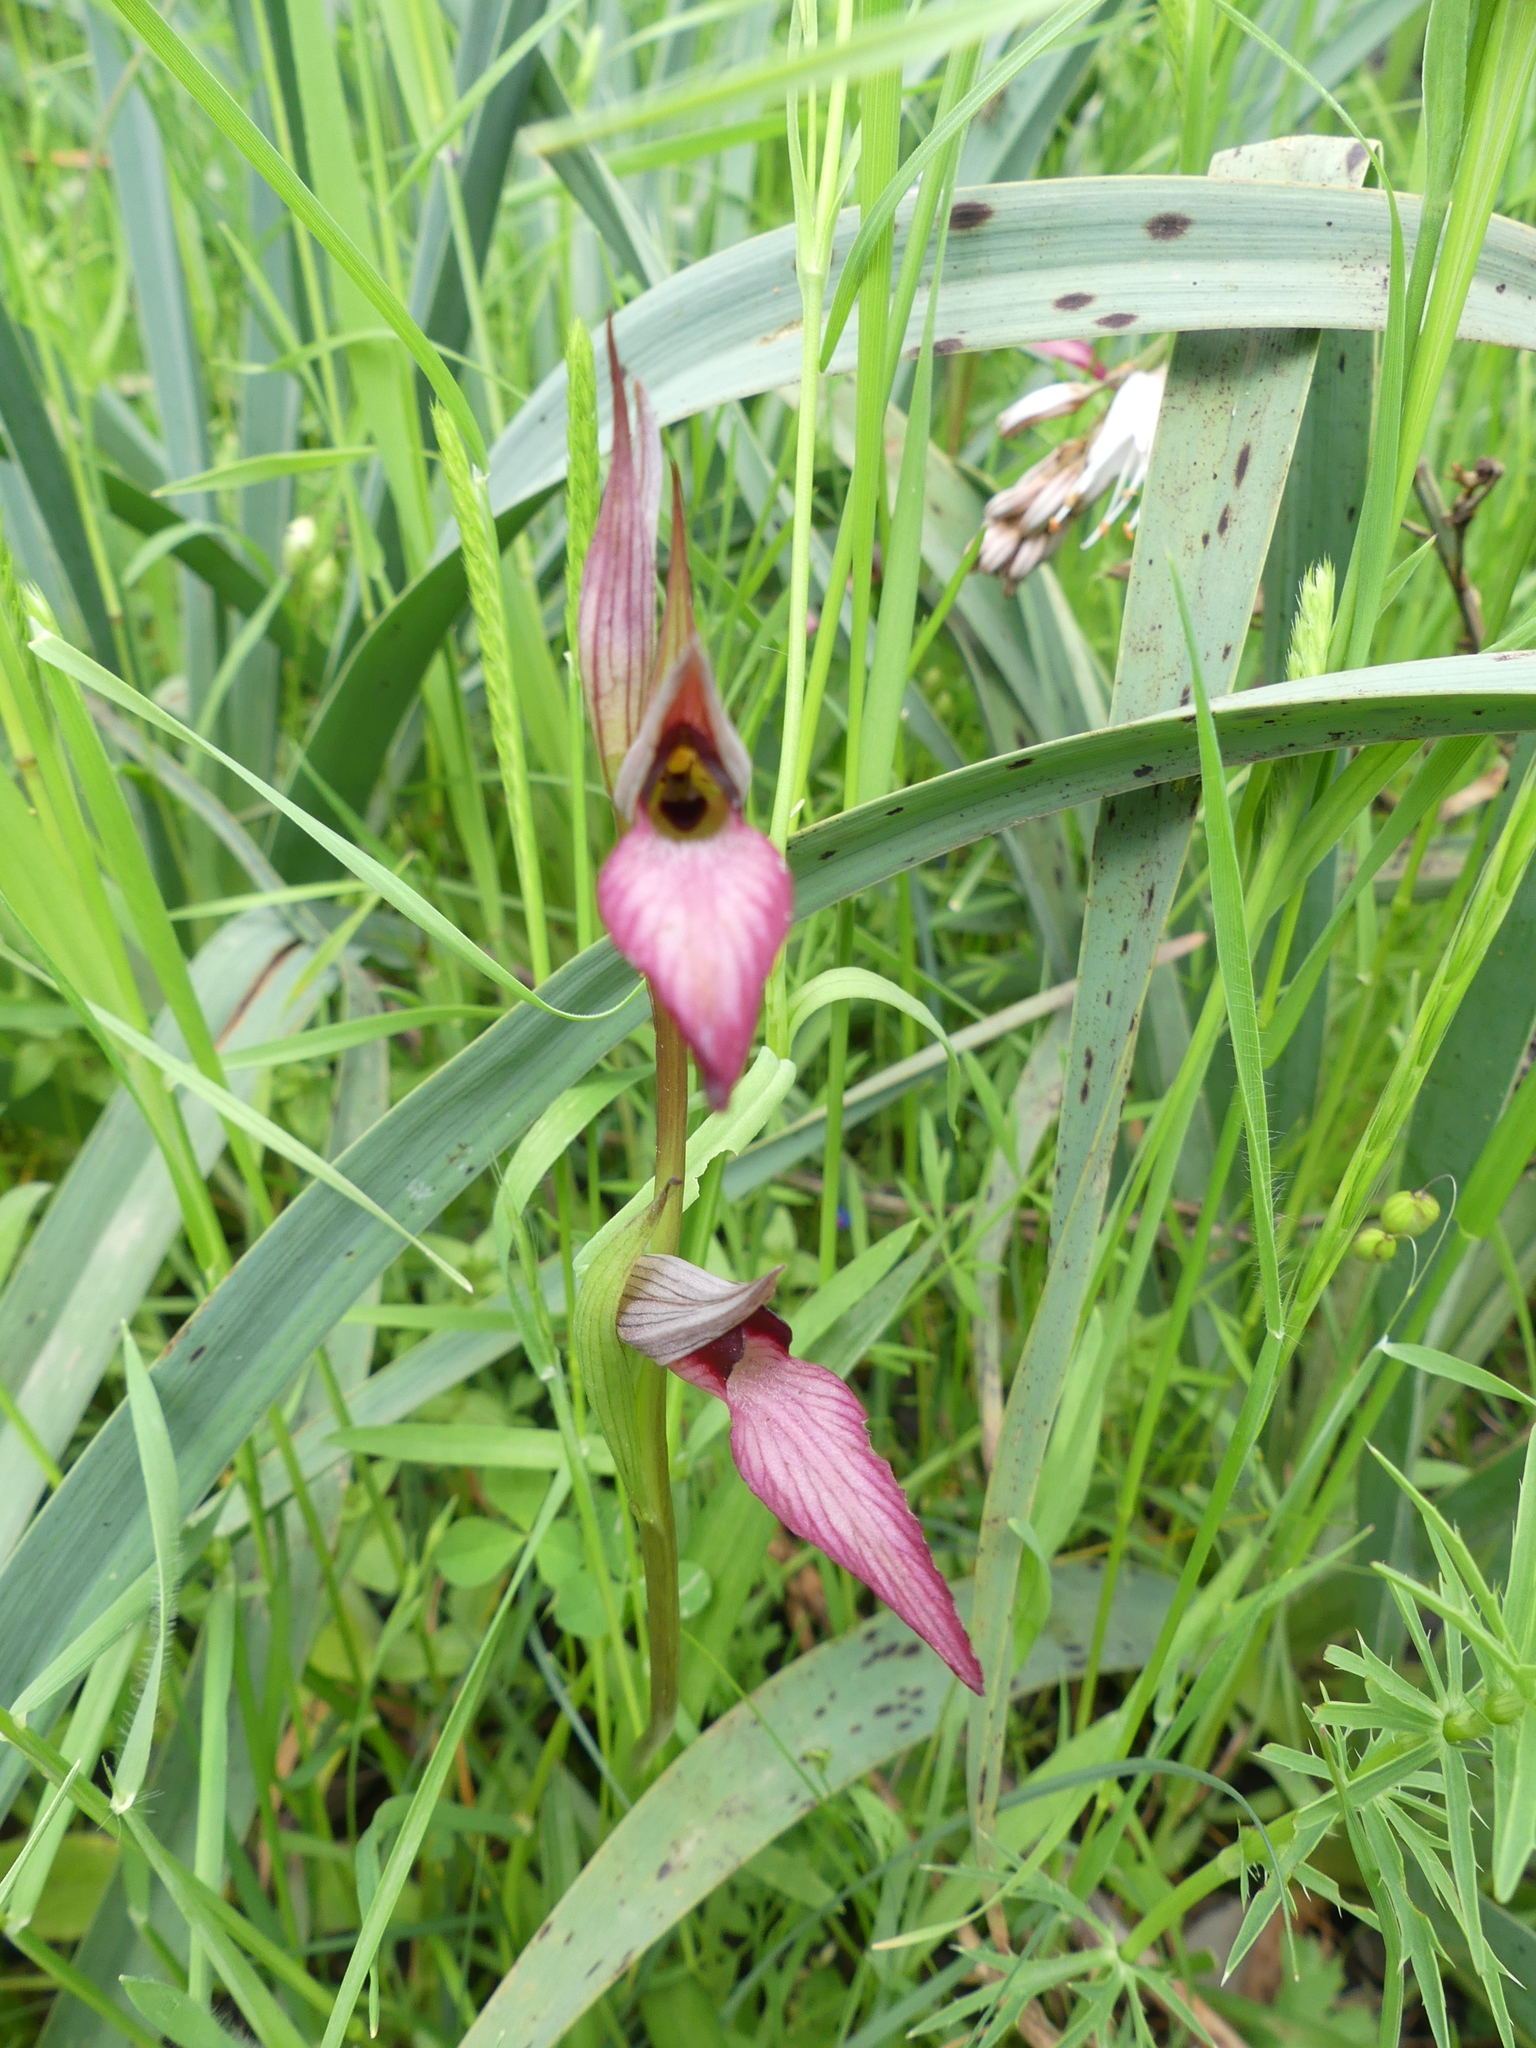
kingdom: Plantae
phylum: Tracheophyta
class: Liliopsida
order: Asparagales
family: Orchidaceae
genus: Serapias
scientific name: Serapias lingua
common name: Tongue-orchid
